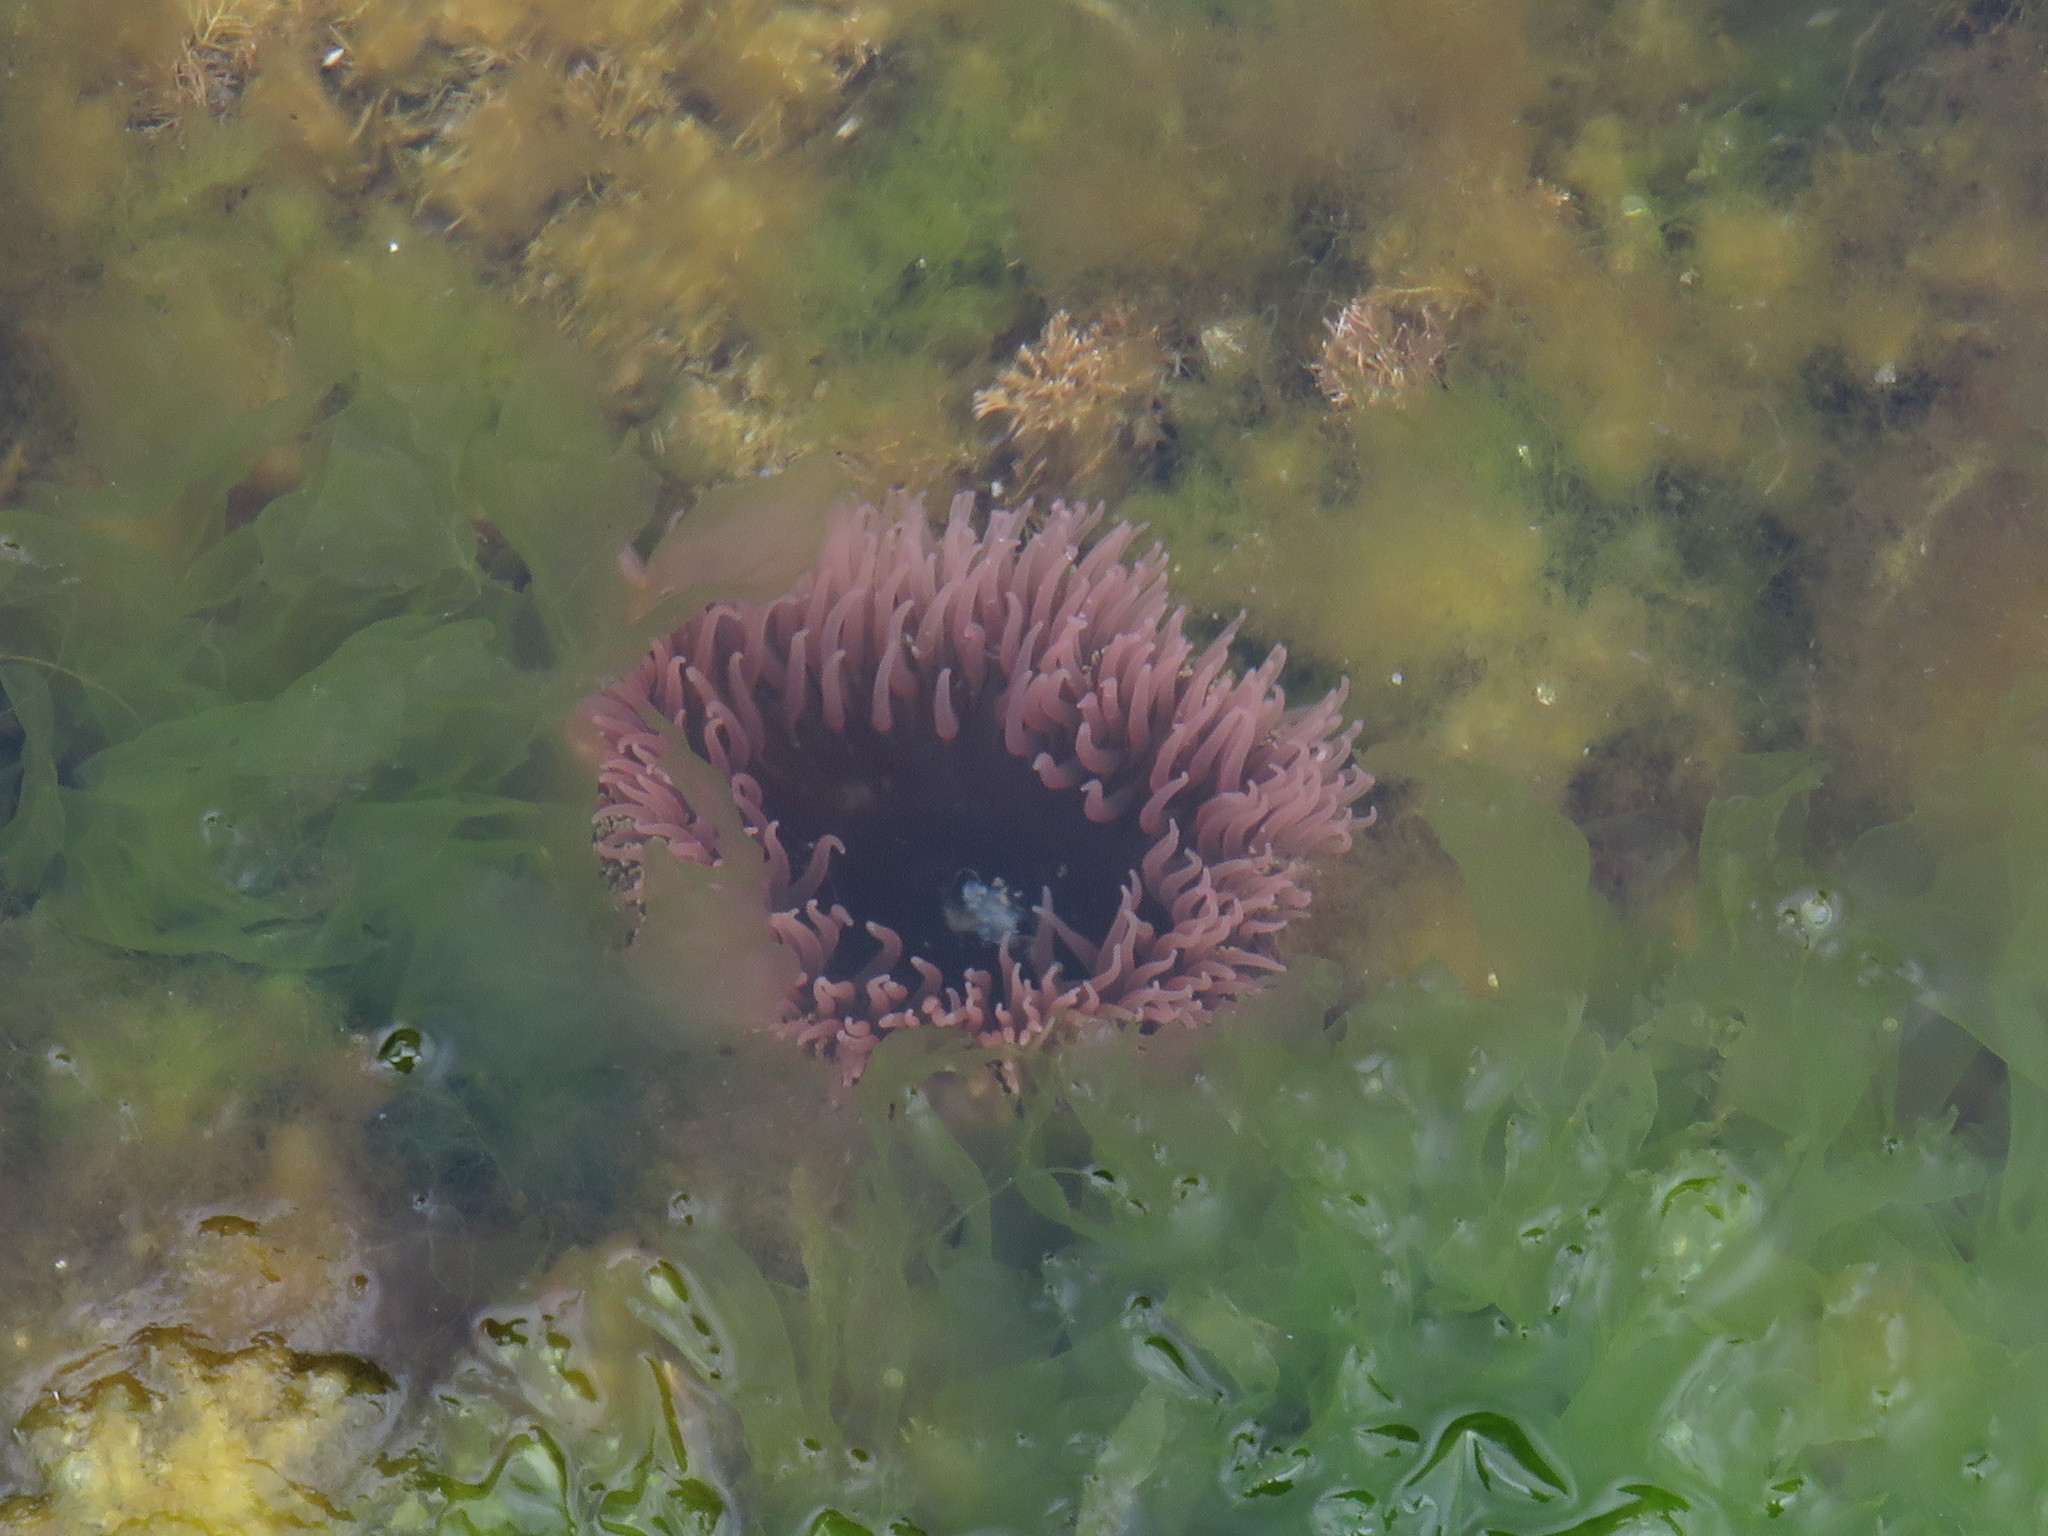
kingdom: Animalia
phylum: Cnidaria
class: Anthozoa
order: Actiniaria
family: Actiniidae
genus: Bunodactis
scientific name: Bunodactis reynaudi
